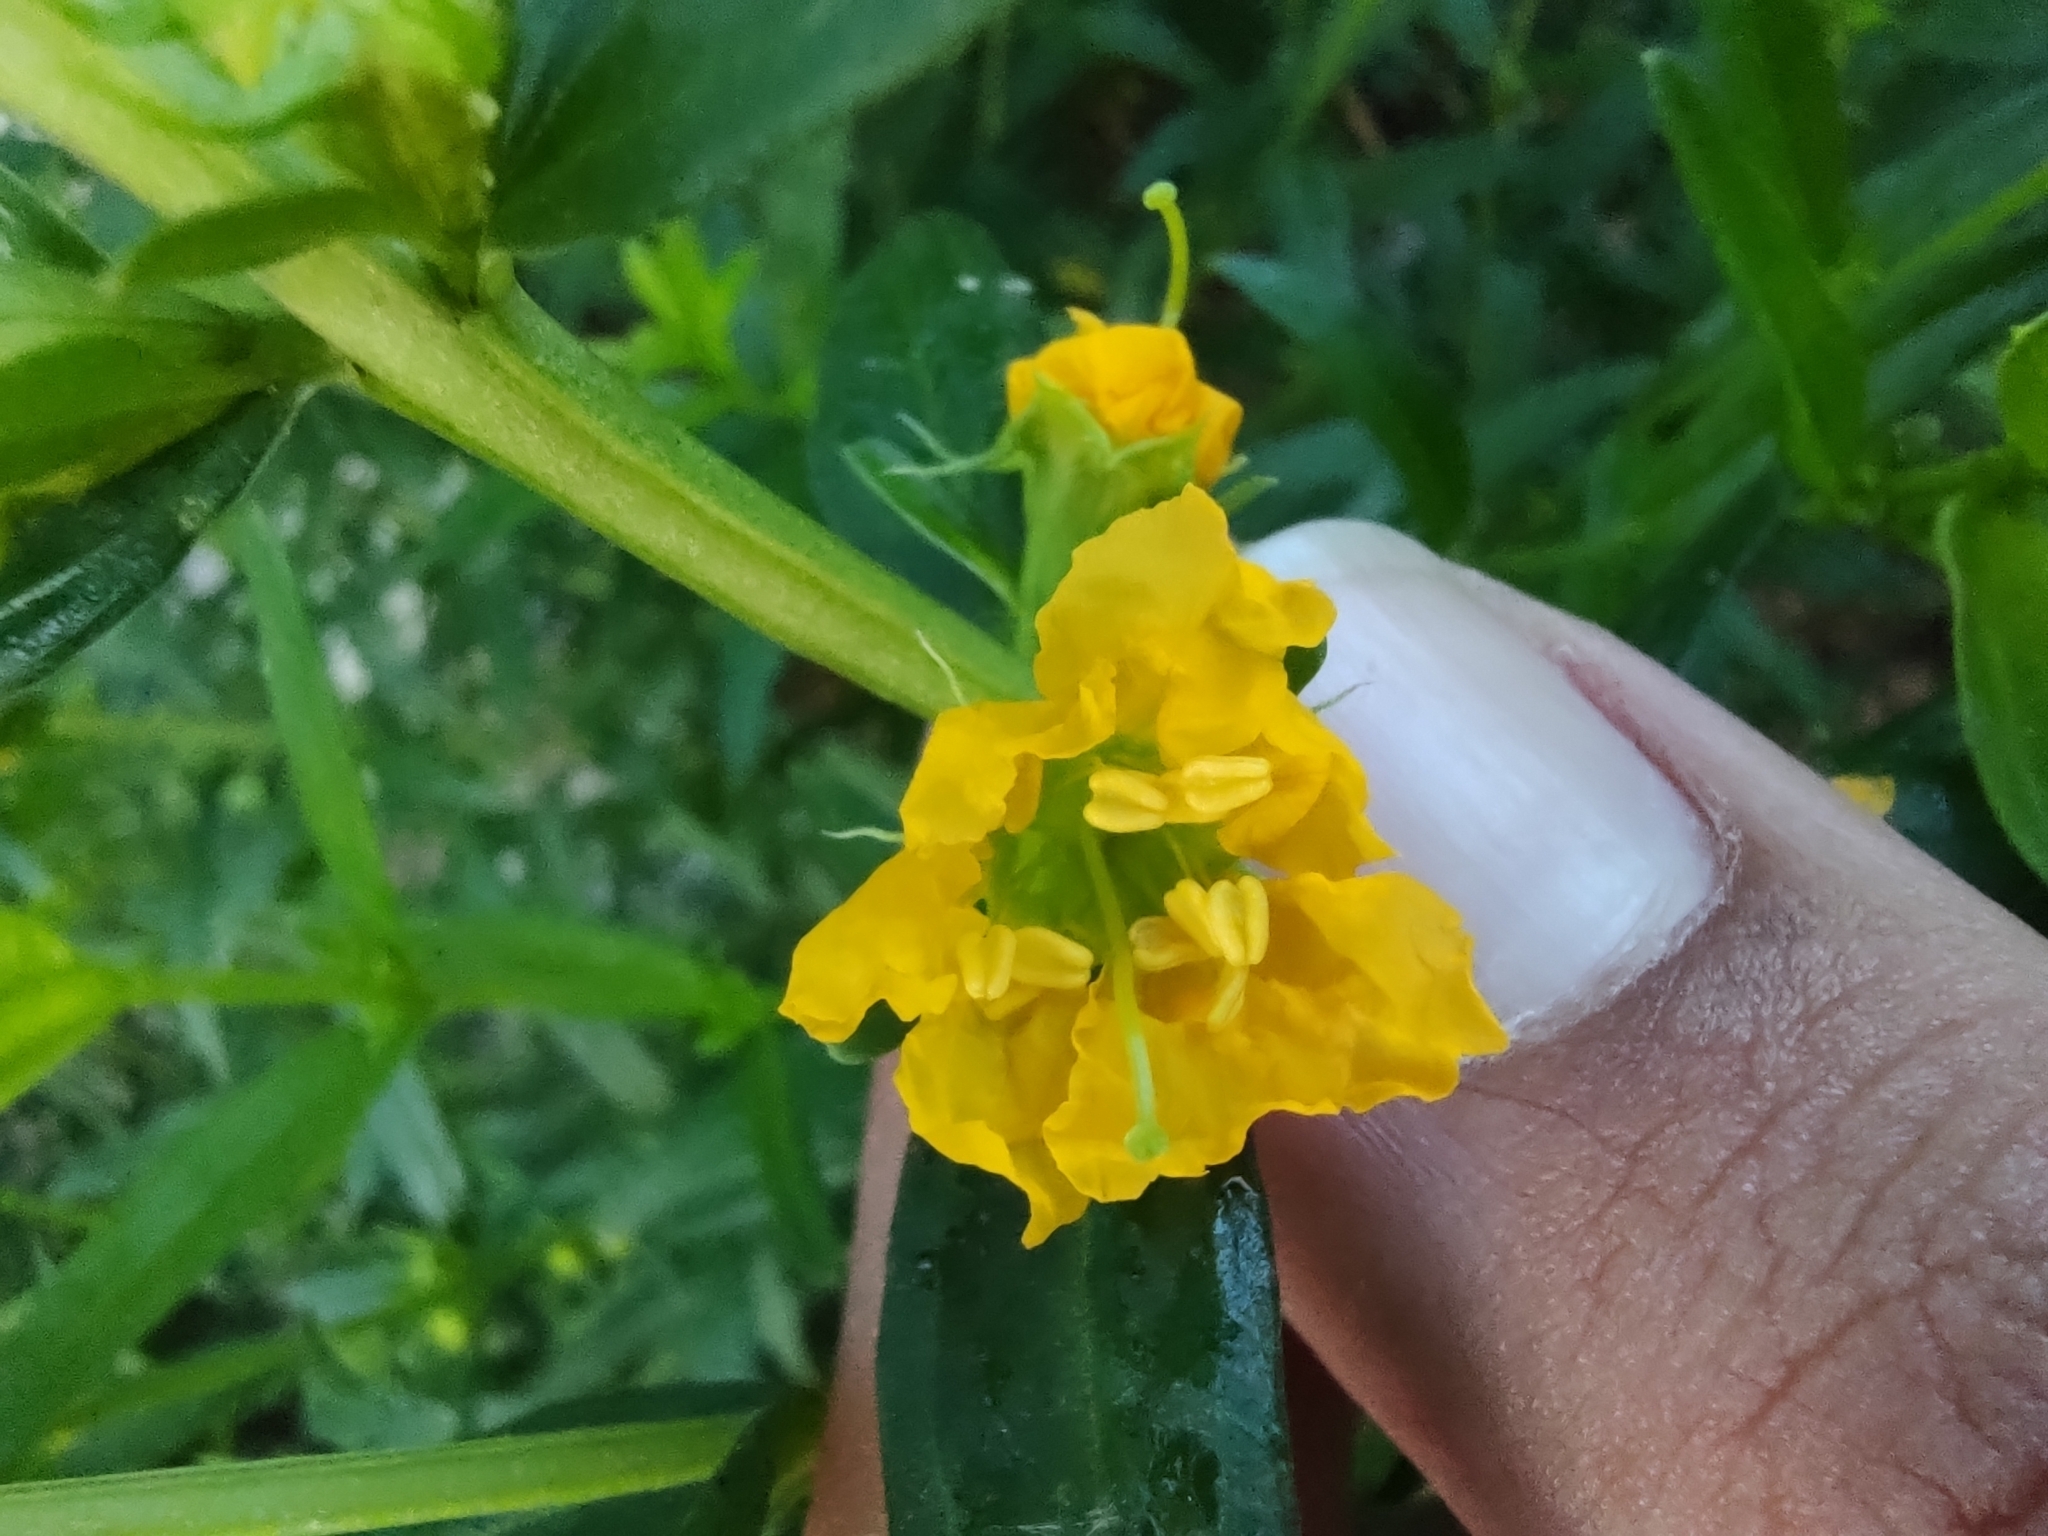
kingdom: Plantae
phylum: Tracheophyta
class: Magnoliopsida
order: Myrtales
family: Lythraceae
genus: Heimia
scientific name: Heimia salicifolia
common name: Willow-leaf heimia
